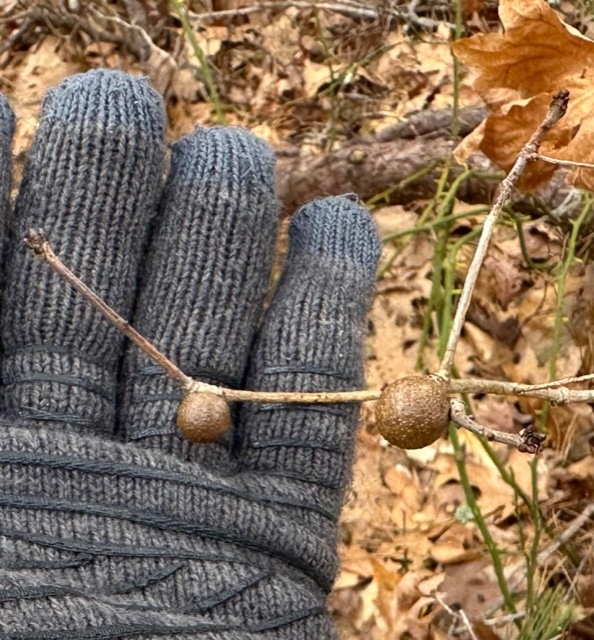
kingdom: Animalia
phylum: Arthropoda
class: Insecta
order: Hymenoptera
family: Cynipidae
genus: Disholcaspis
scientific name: Disholcaspis quercusglobulus
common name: Round bullet gall wasp
